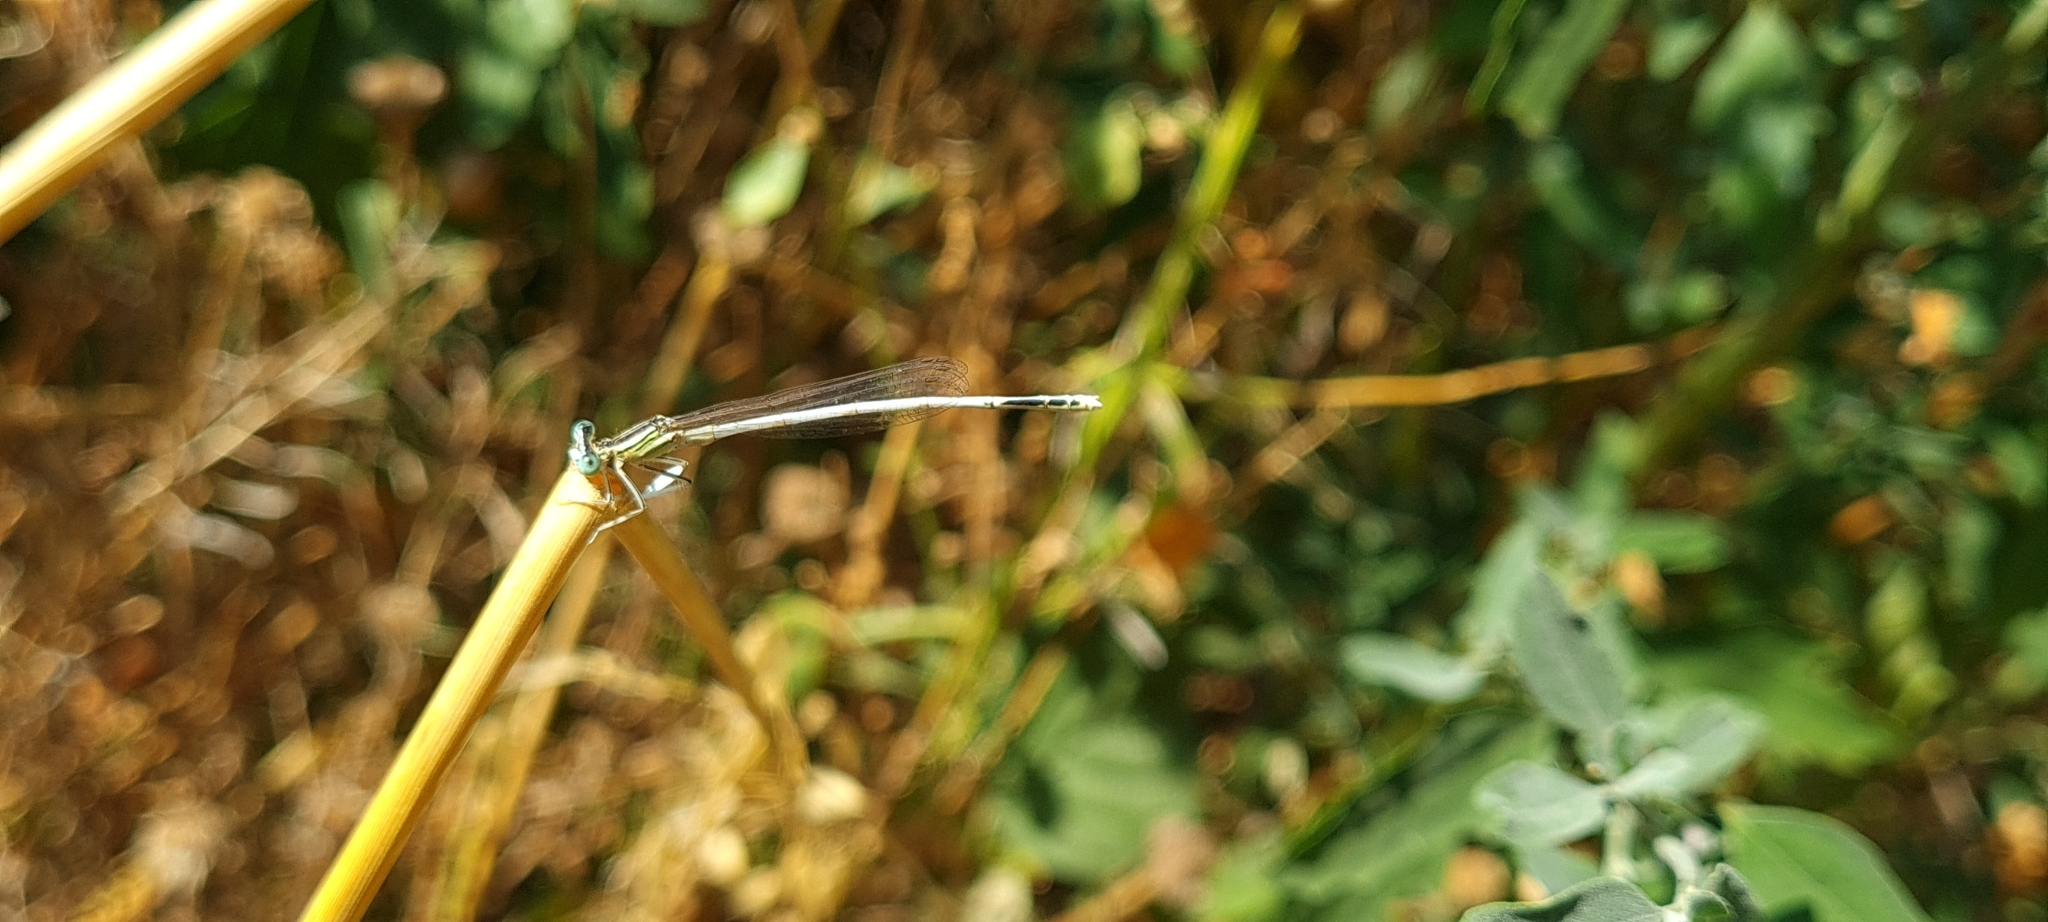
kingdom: Animalia
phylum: Arthropoda
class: Insecta
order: Odonata
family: Platycnemididae
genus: Platycnemis
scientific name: Platycnemis latipes
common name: White featherleg
